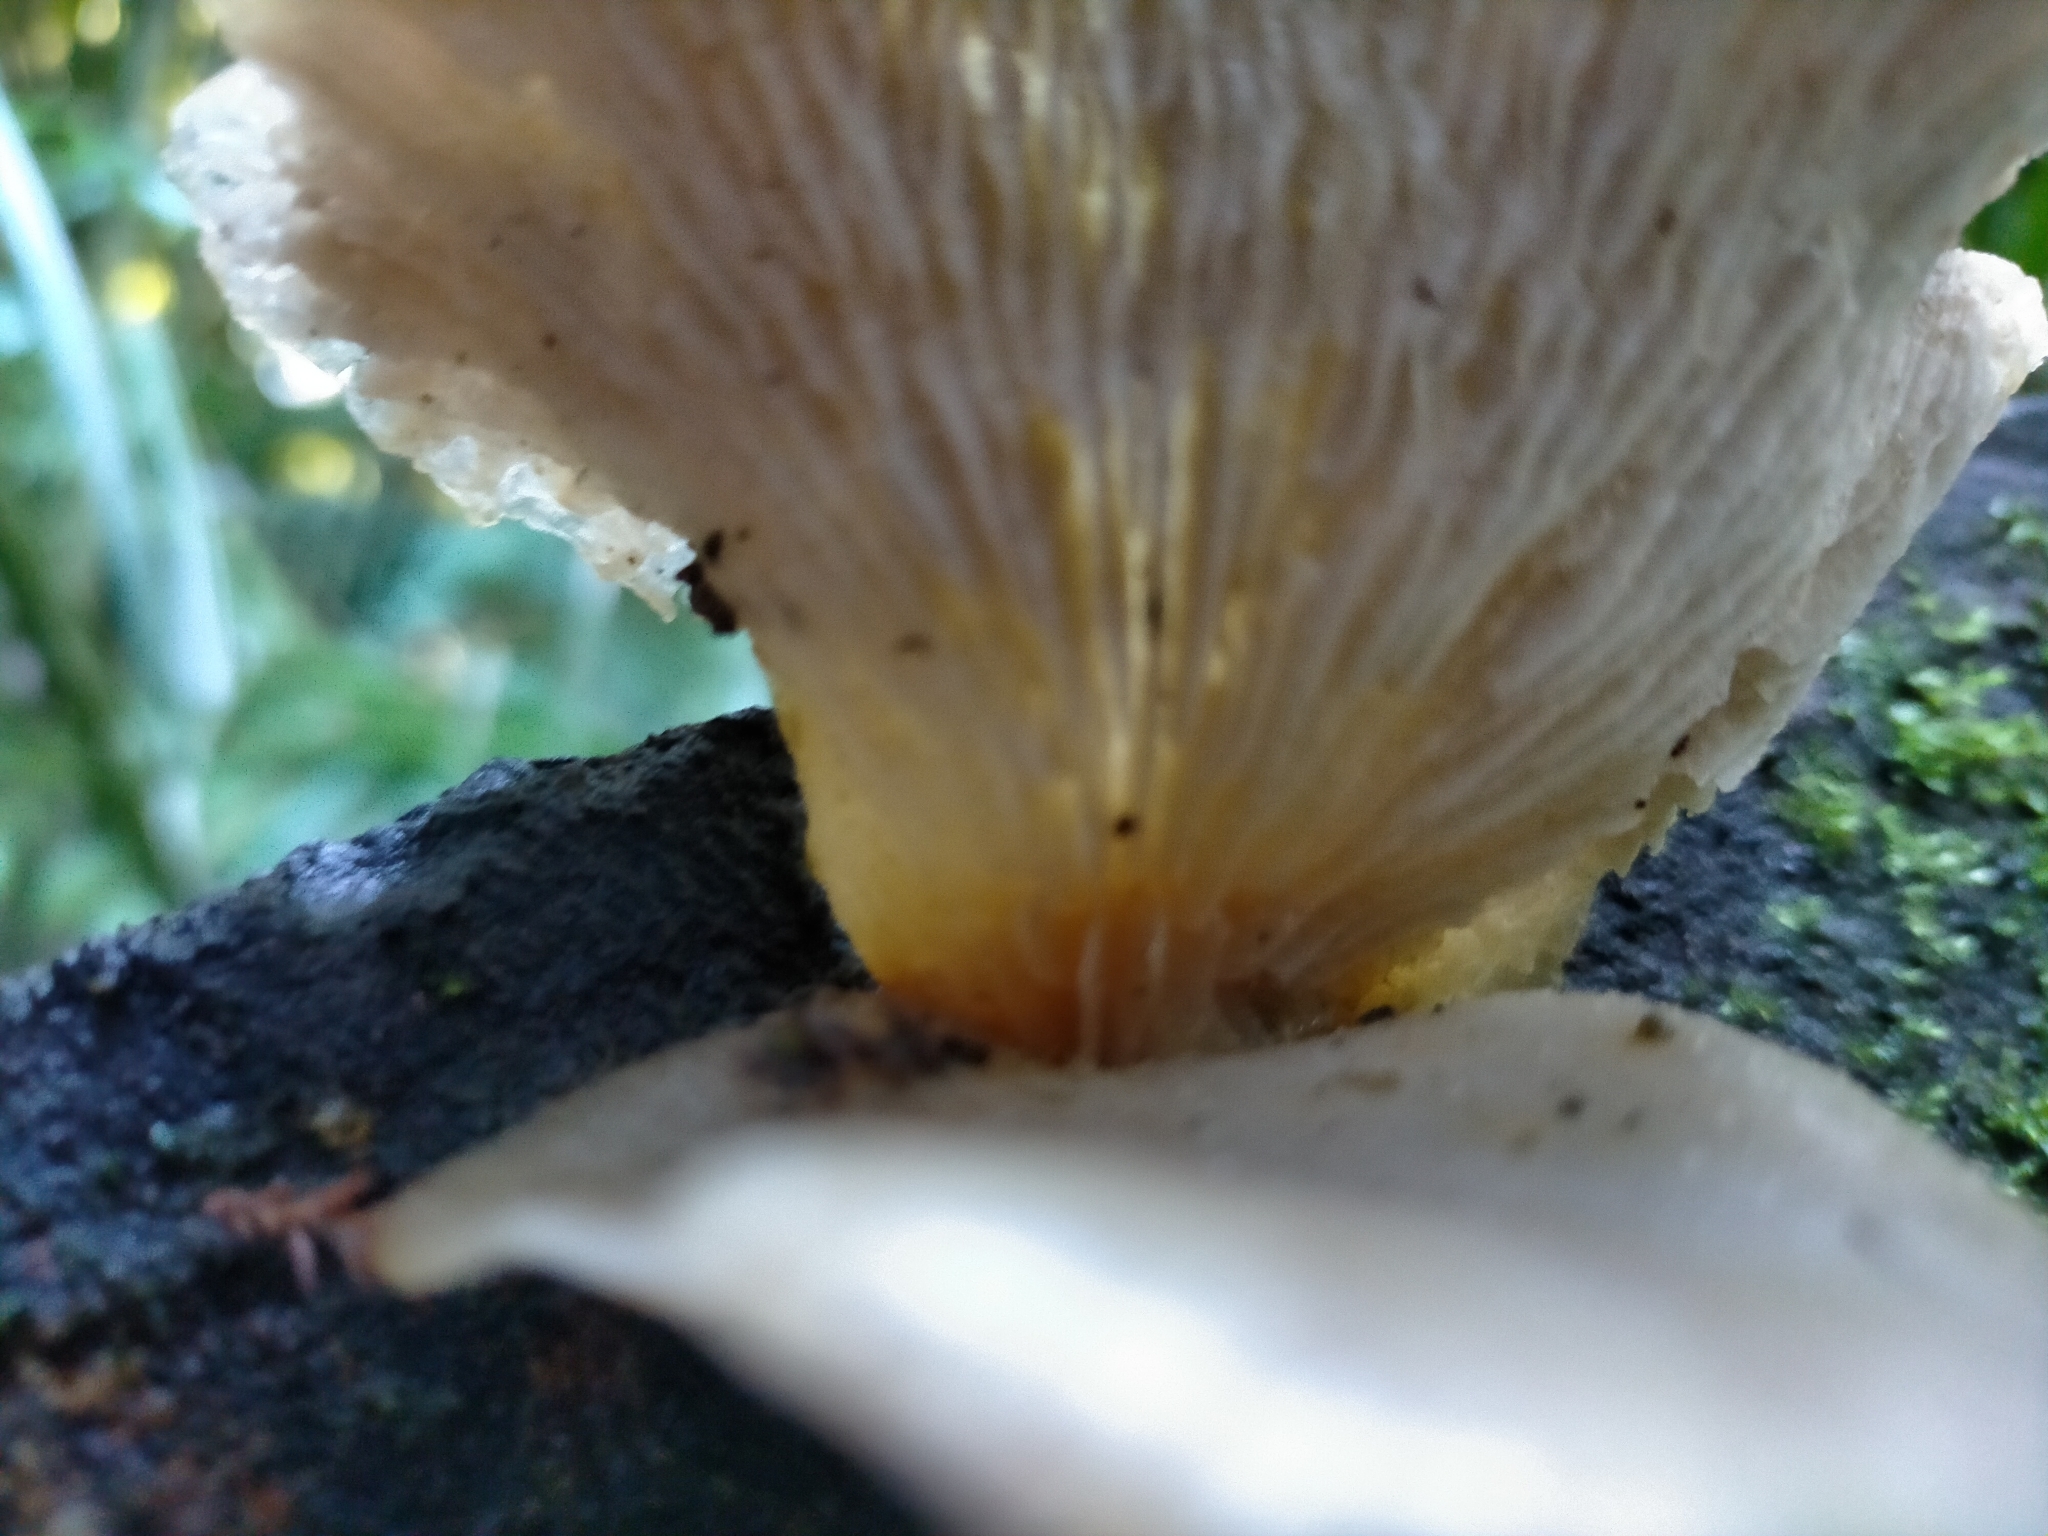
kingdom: Fungi
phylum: Basidiomycota
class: Agaricomycetes
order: Agaricales
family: Mycenaceae
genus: Panellus
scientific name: Panellus longinquus
